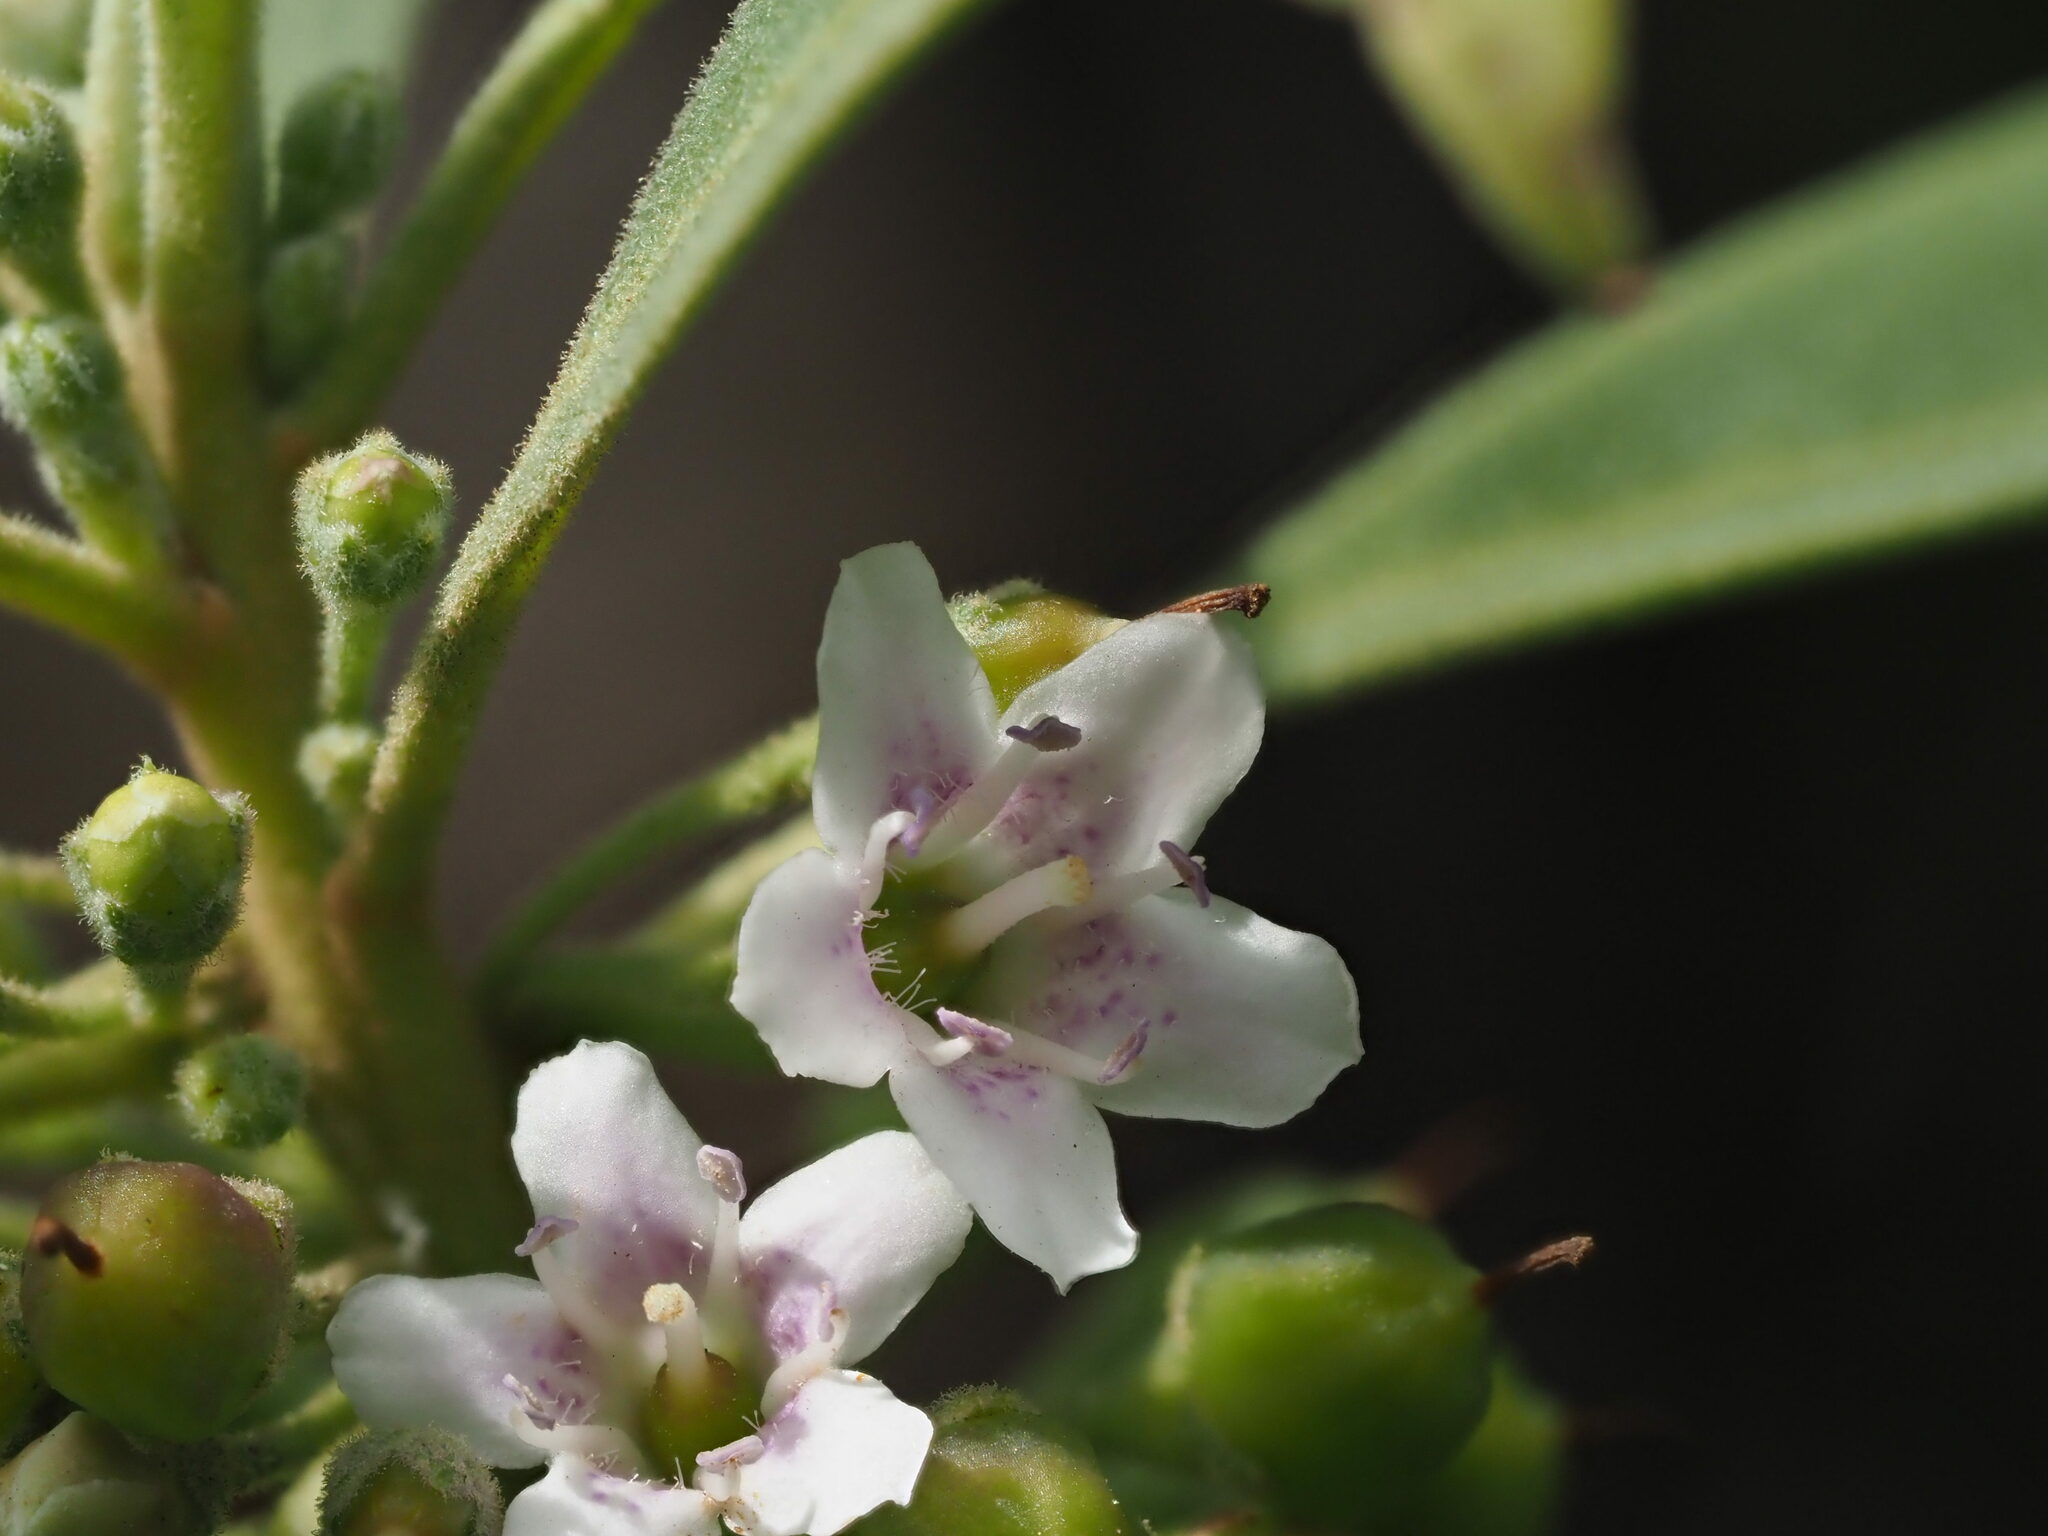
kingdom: Plantae
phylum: Tracheophyta
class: Magnoliopsida
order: Lamiales
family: Scrophulariaceae
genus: Myoporum
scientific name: Myoporum stellatum
